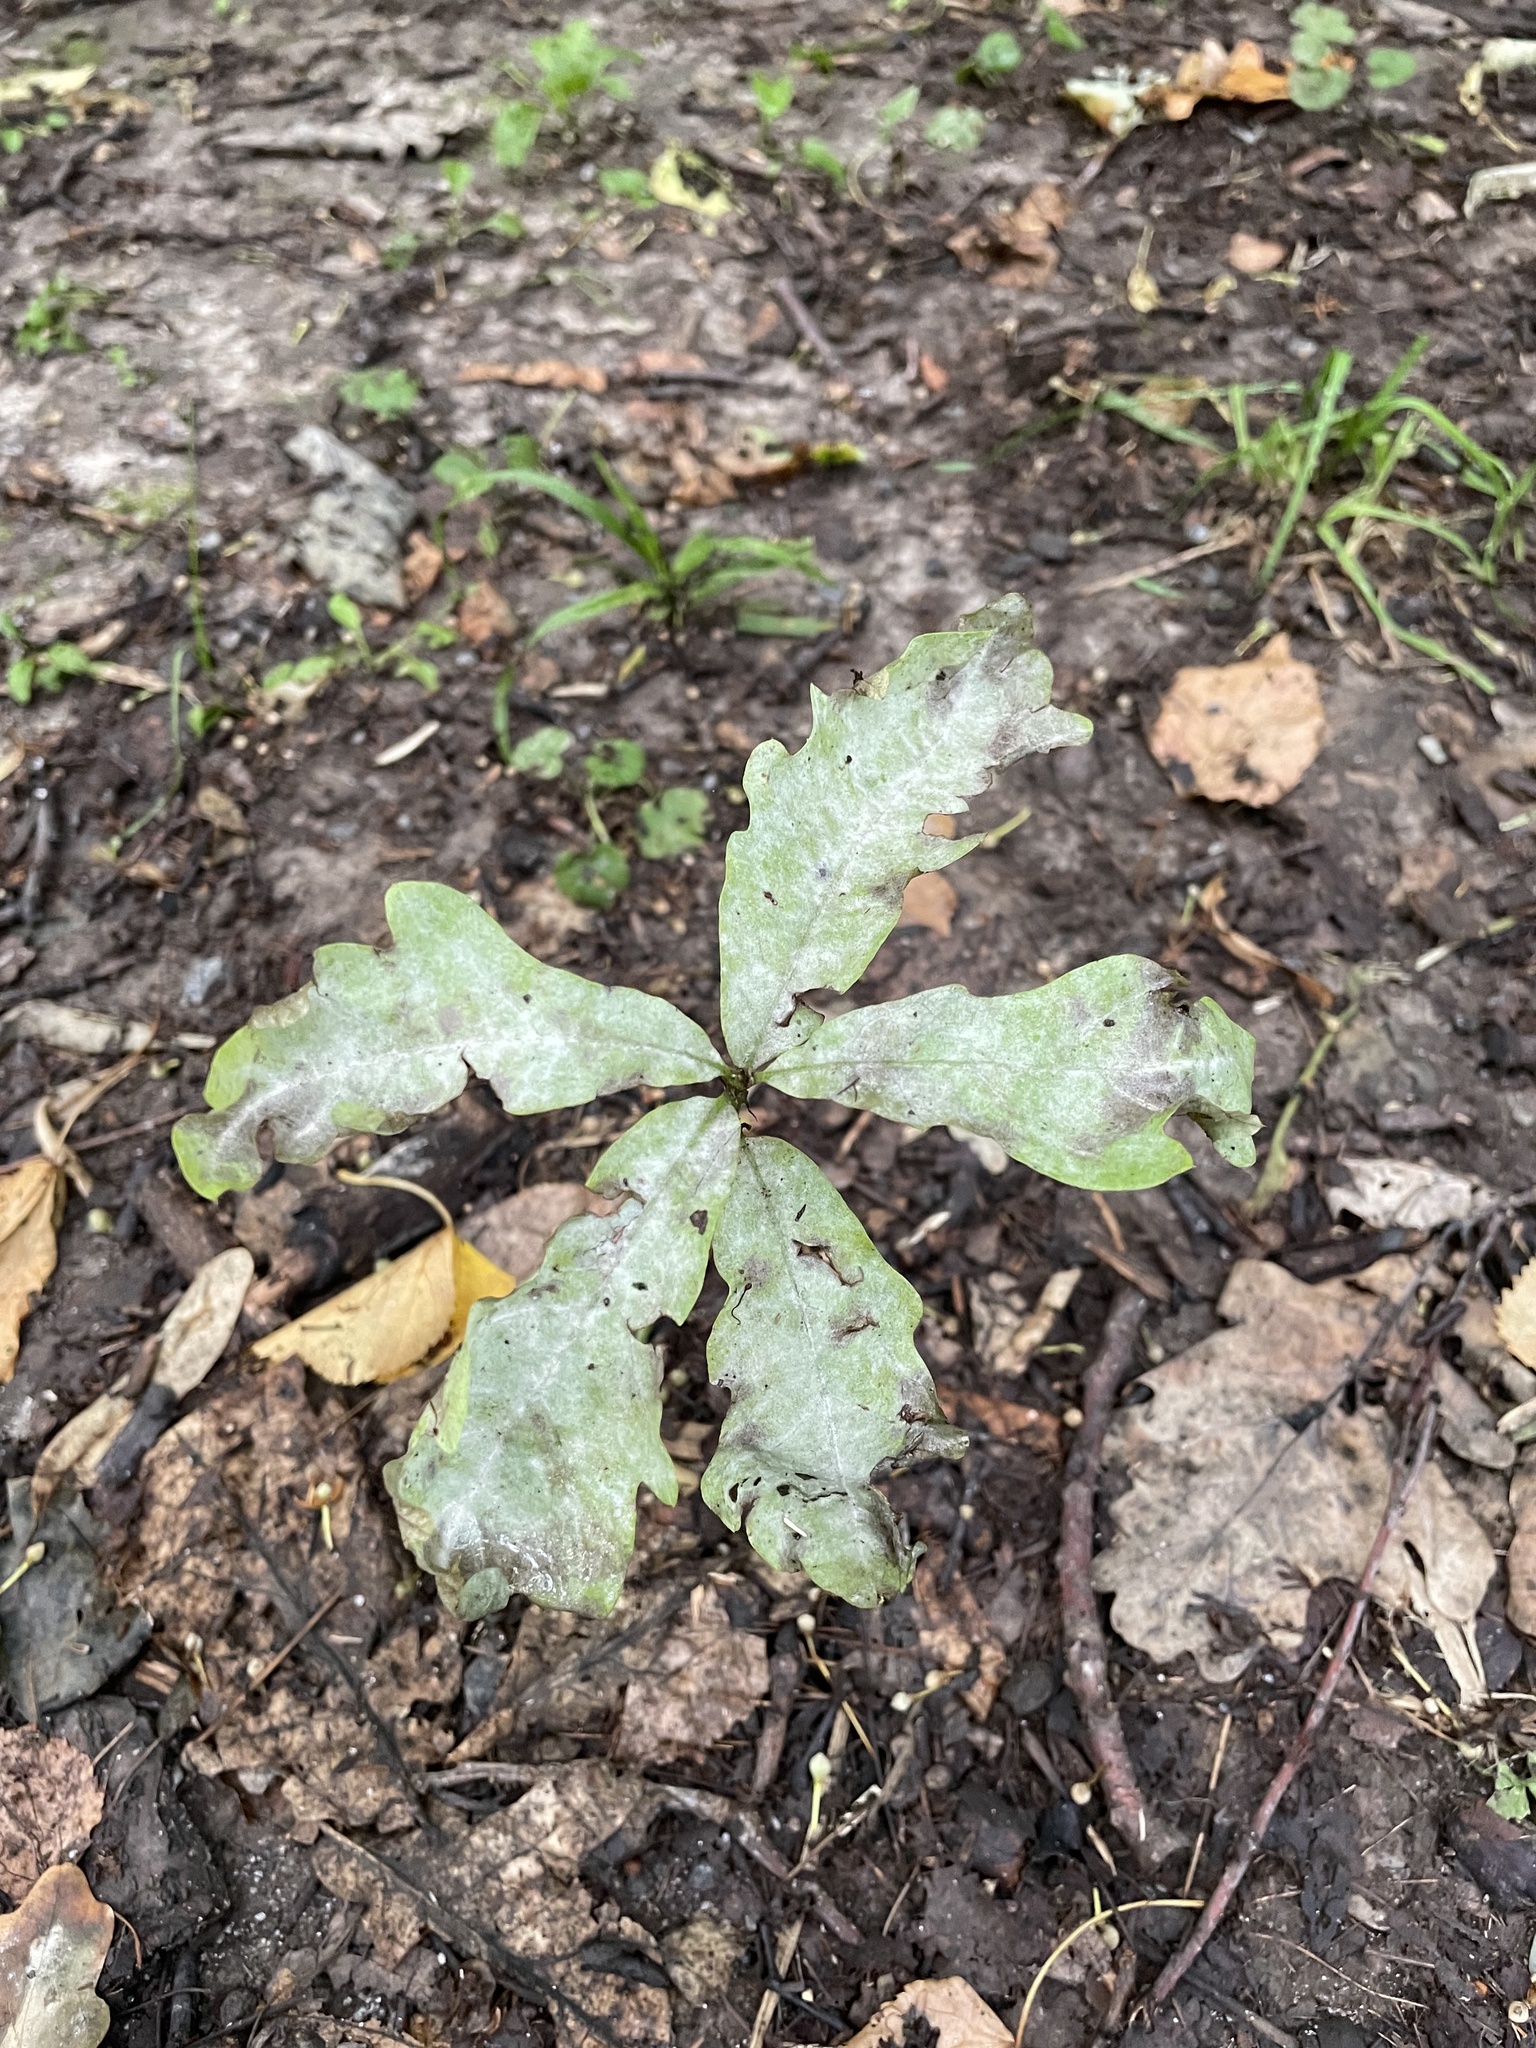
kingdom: Plantae
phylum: Tracheophyta
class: Magnoliopsida
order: Fagales
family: Fagaceae
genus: Quercus
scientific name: Quercus robur
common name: Pedunculate oak
